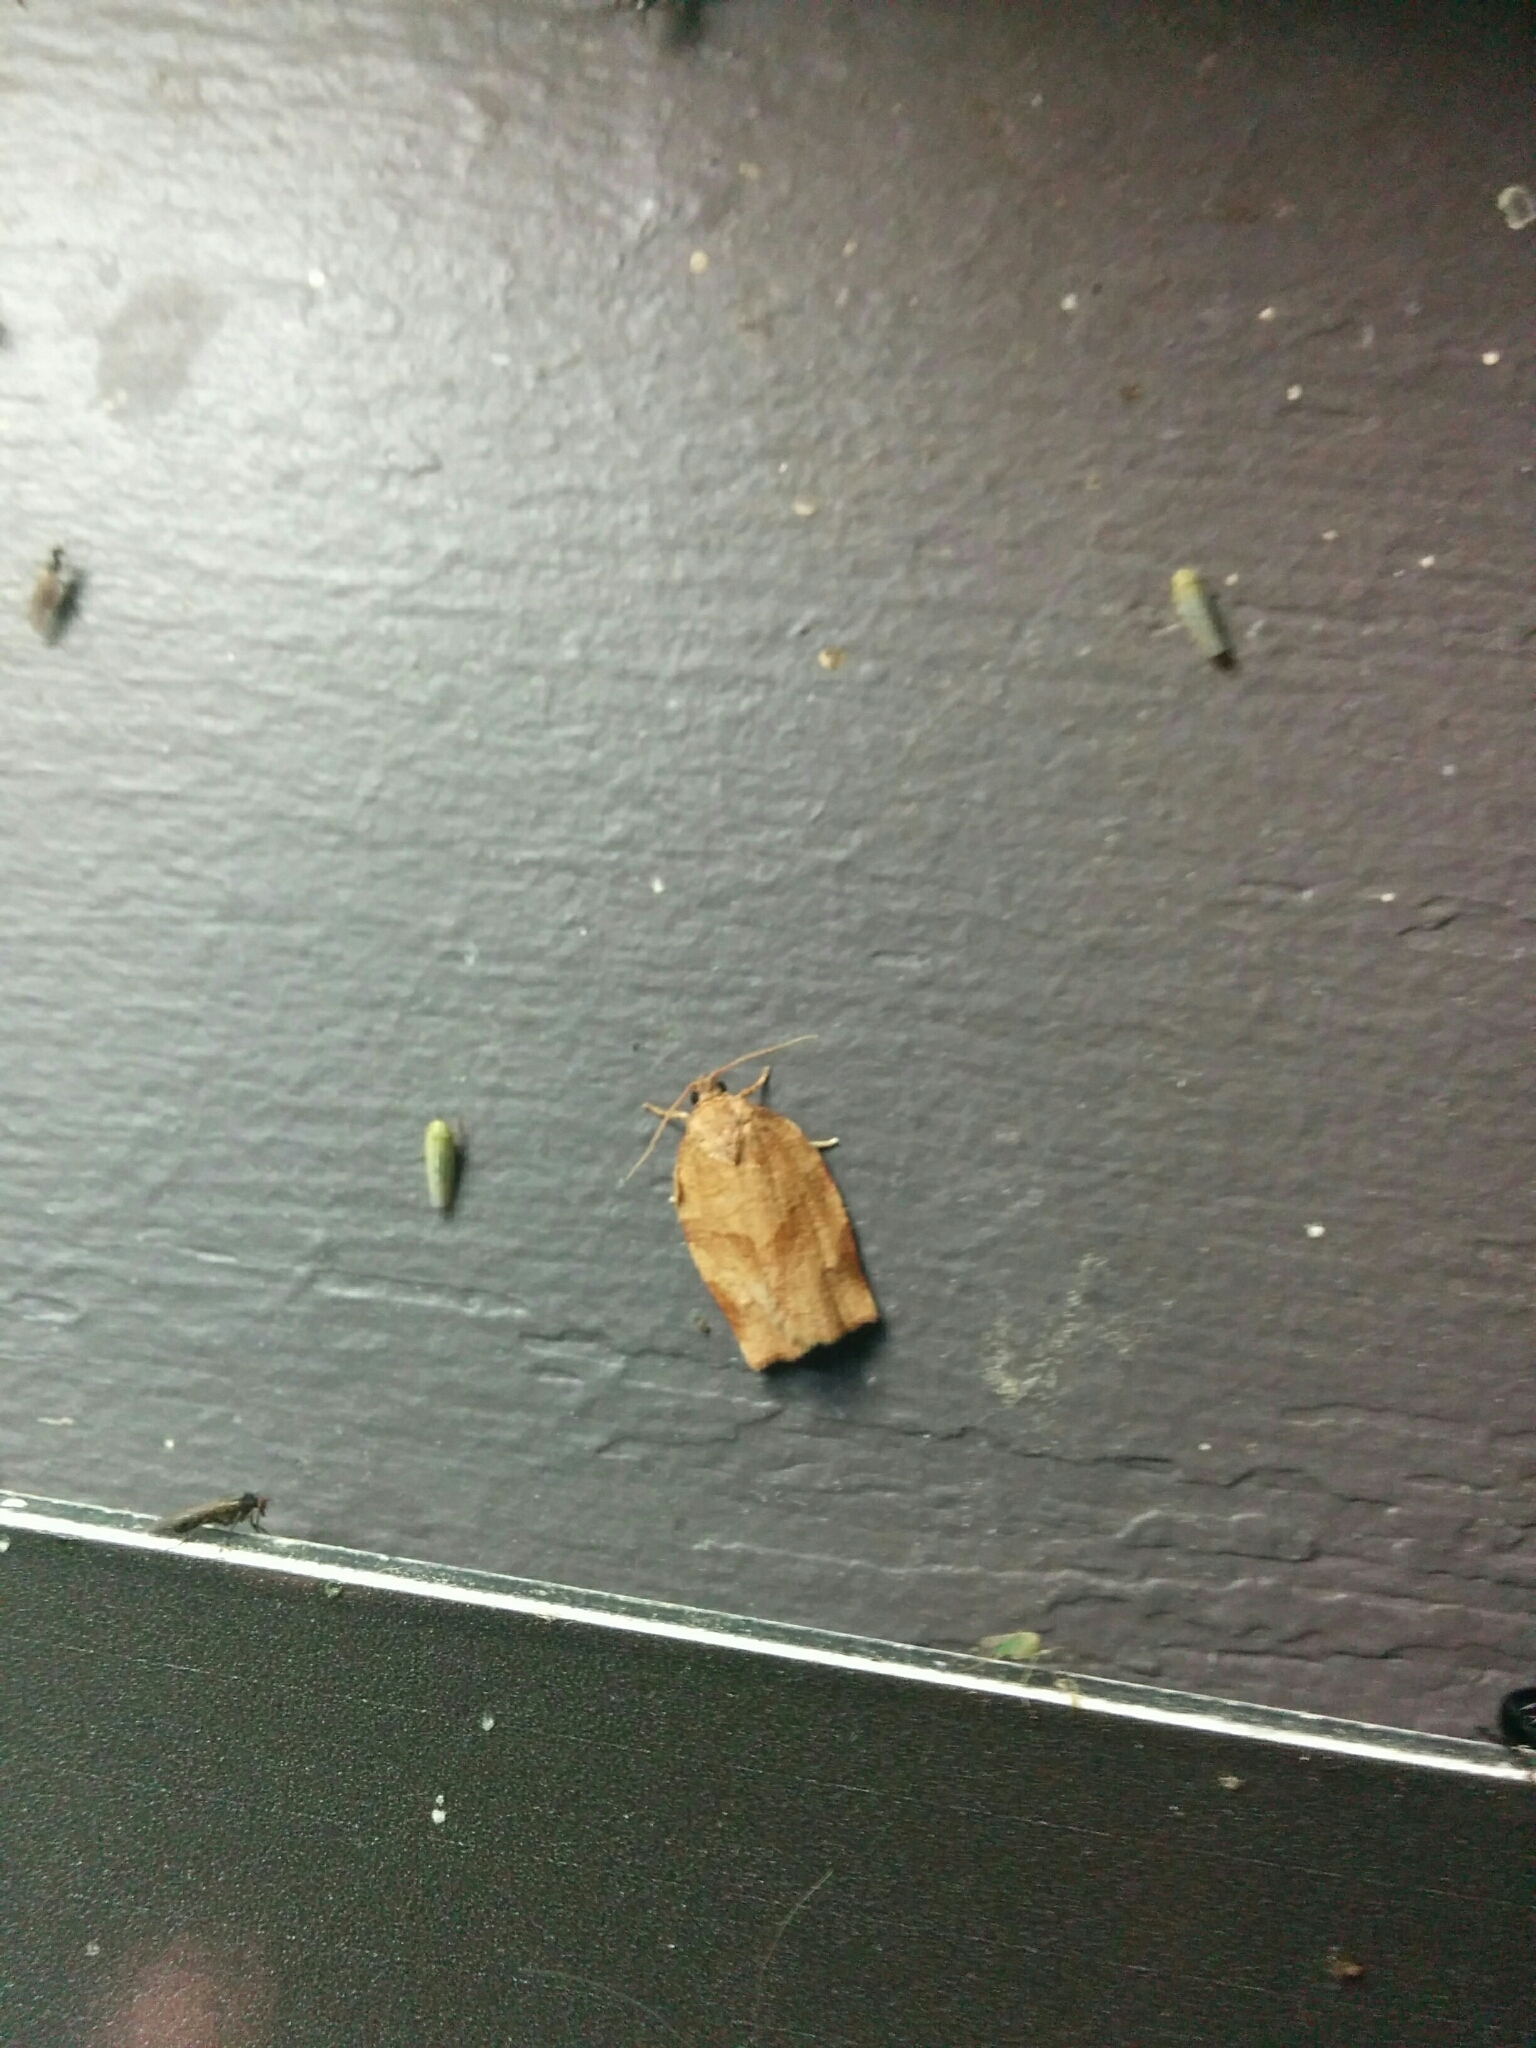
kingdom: Animalia
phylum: Arthropoda
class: Insecta
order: Lepidoptera
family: Tortricidae
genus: Choristoneura
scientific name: Choristoneura rosaceana
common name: Oblique-banded leafroller moth
